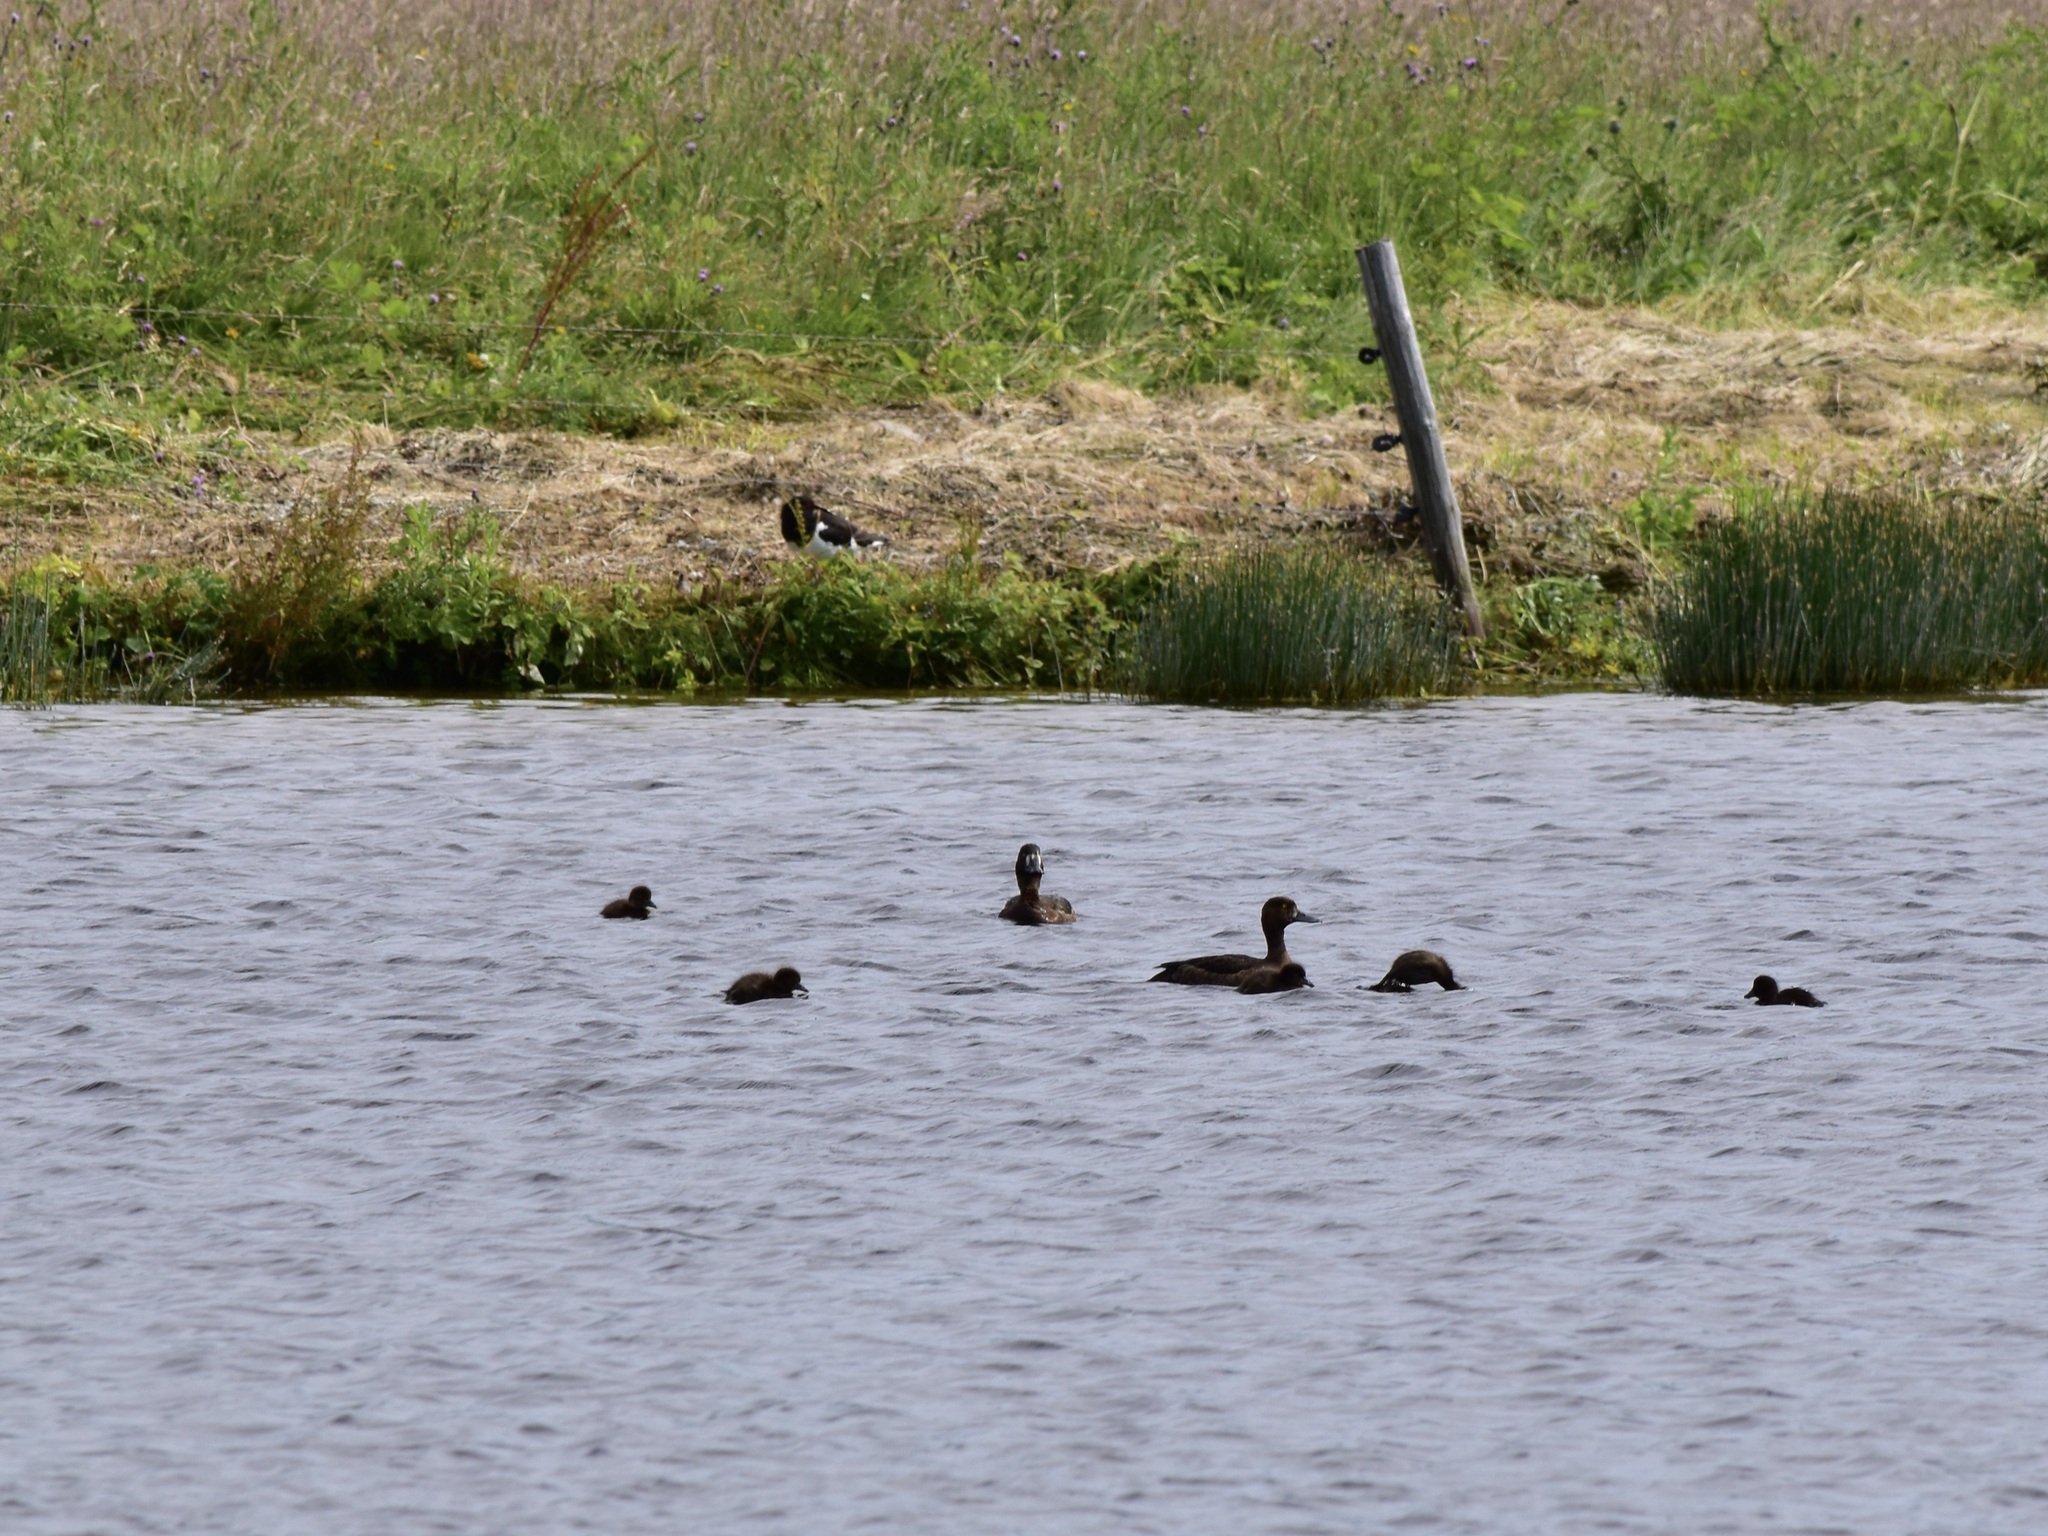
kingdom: Animalia
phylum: Chordata
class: Aves
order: Anseriformes
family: Anatidae
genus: Aythya
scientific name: Aythya fuligula
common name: Tufted duck
